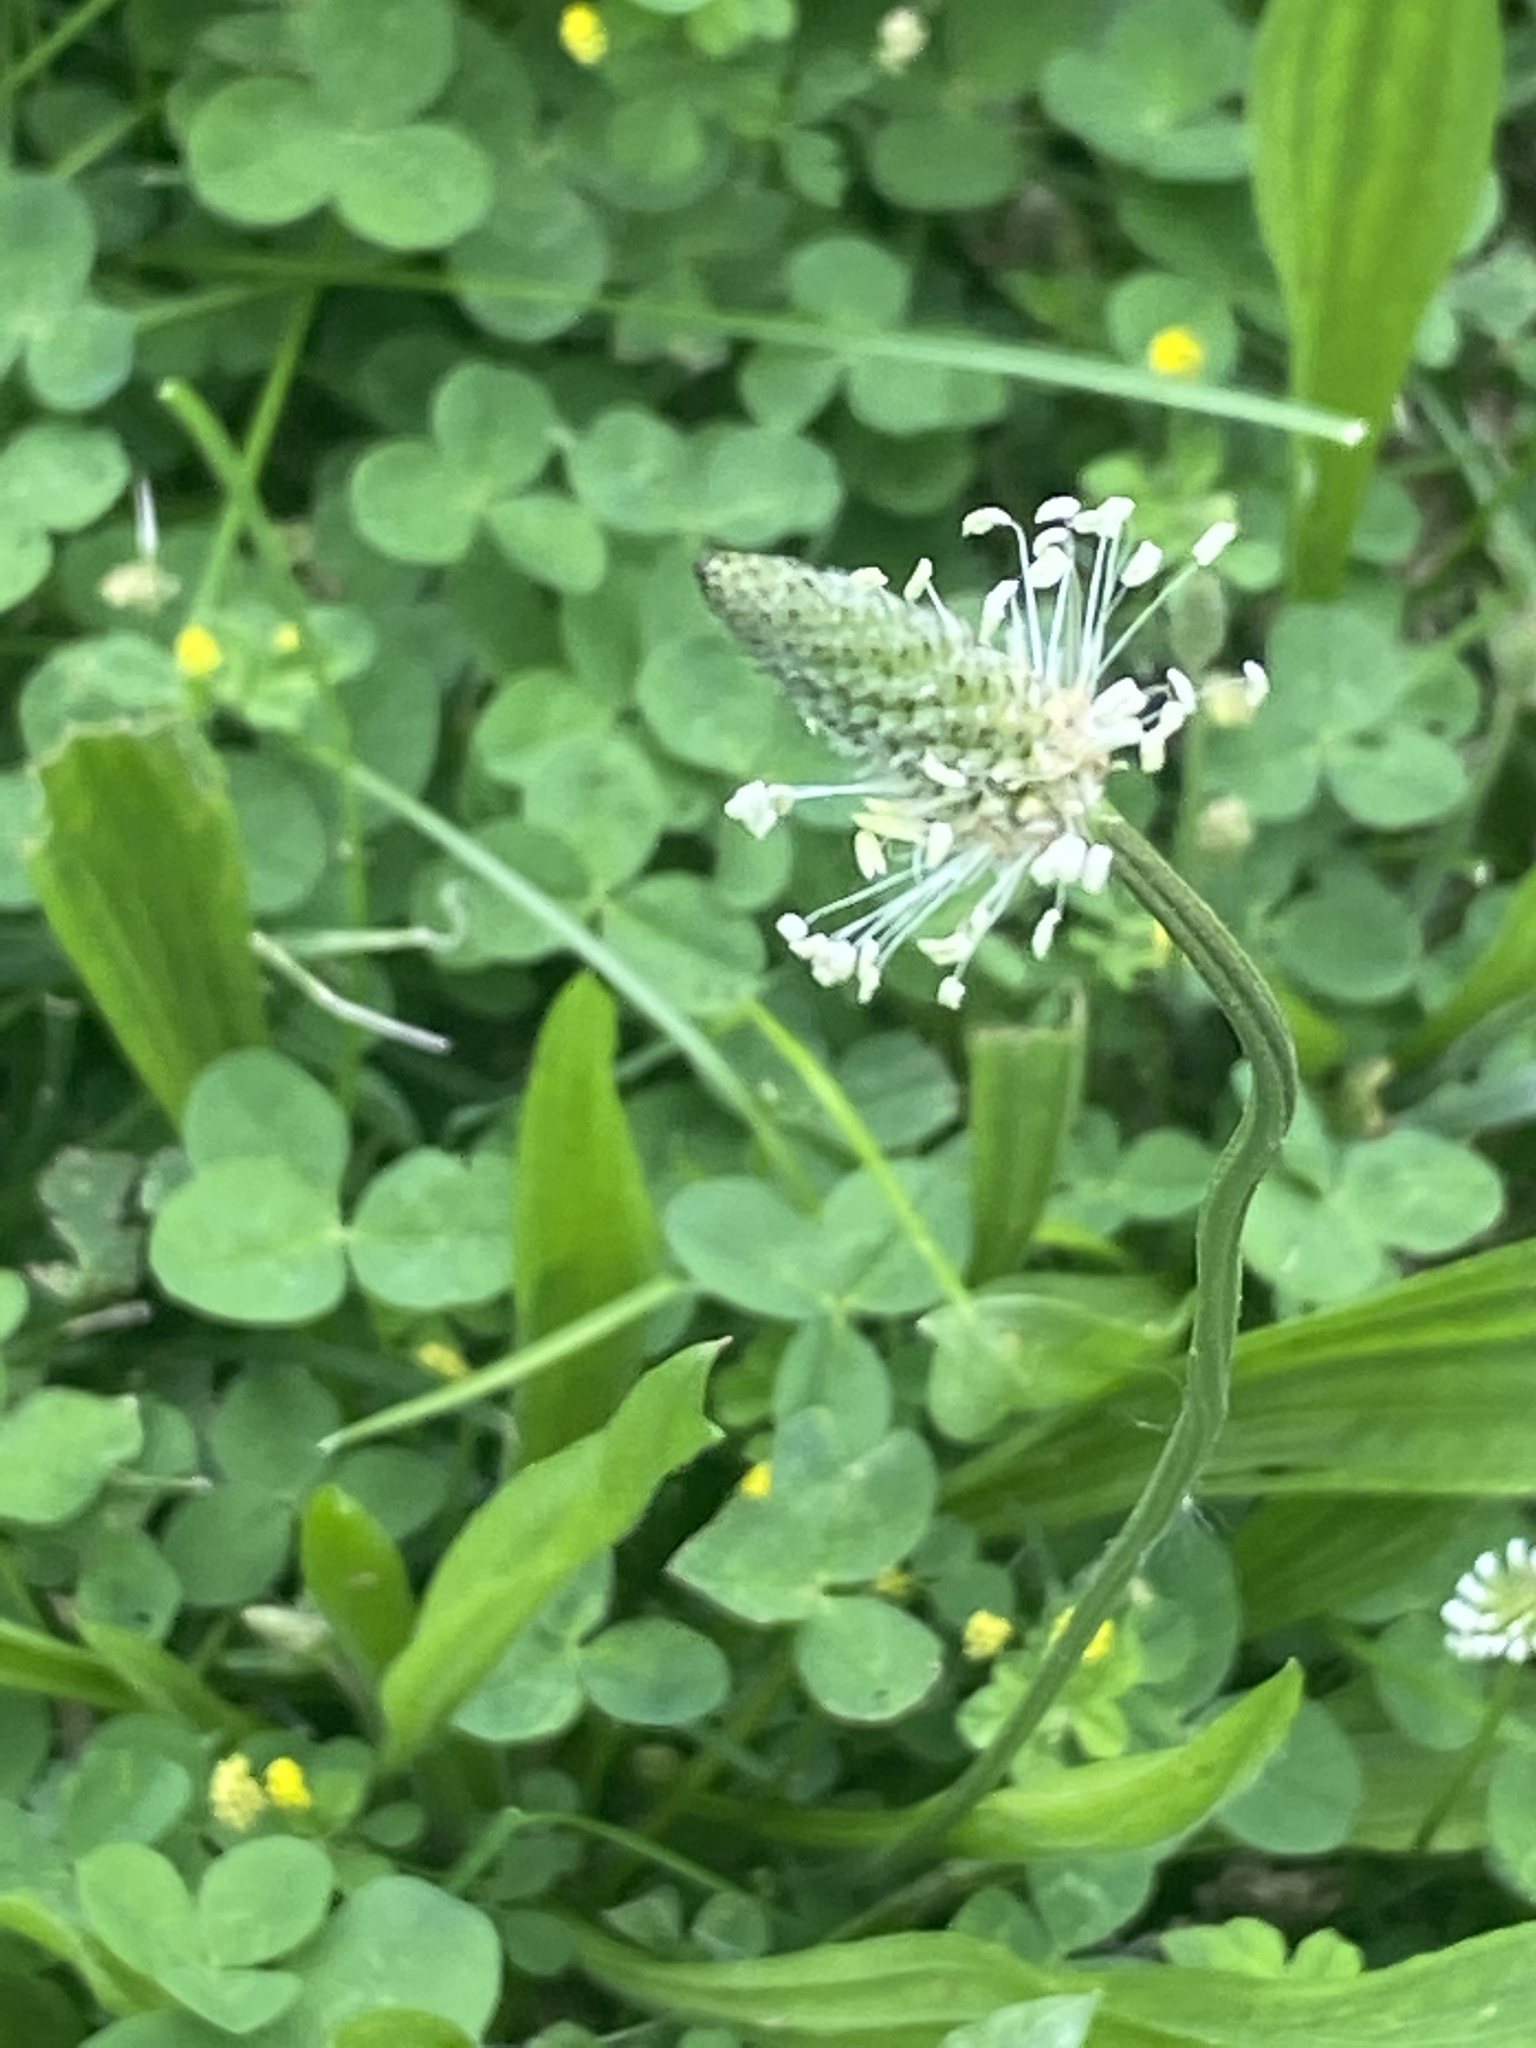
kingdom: Plantae
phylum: Tracheophyta
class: Magnoliopsida
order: Lamiales
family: Plantaginaceae
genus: Plantago
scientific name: Plantago lanceolata
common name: Ribwort plantain
